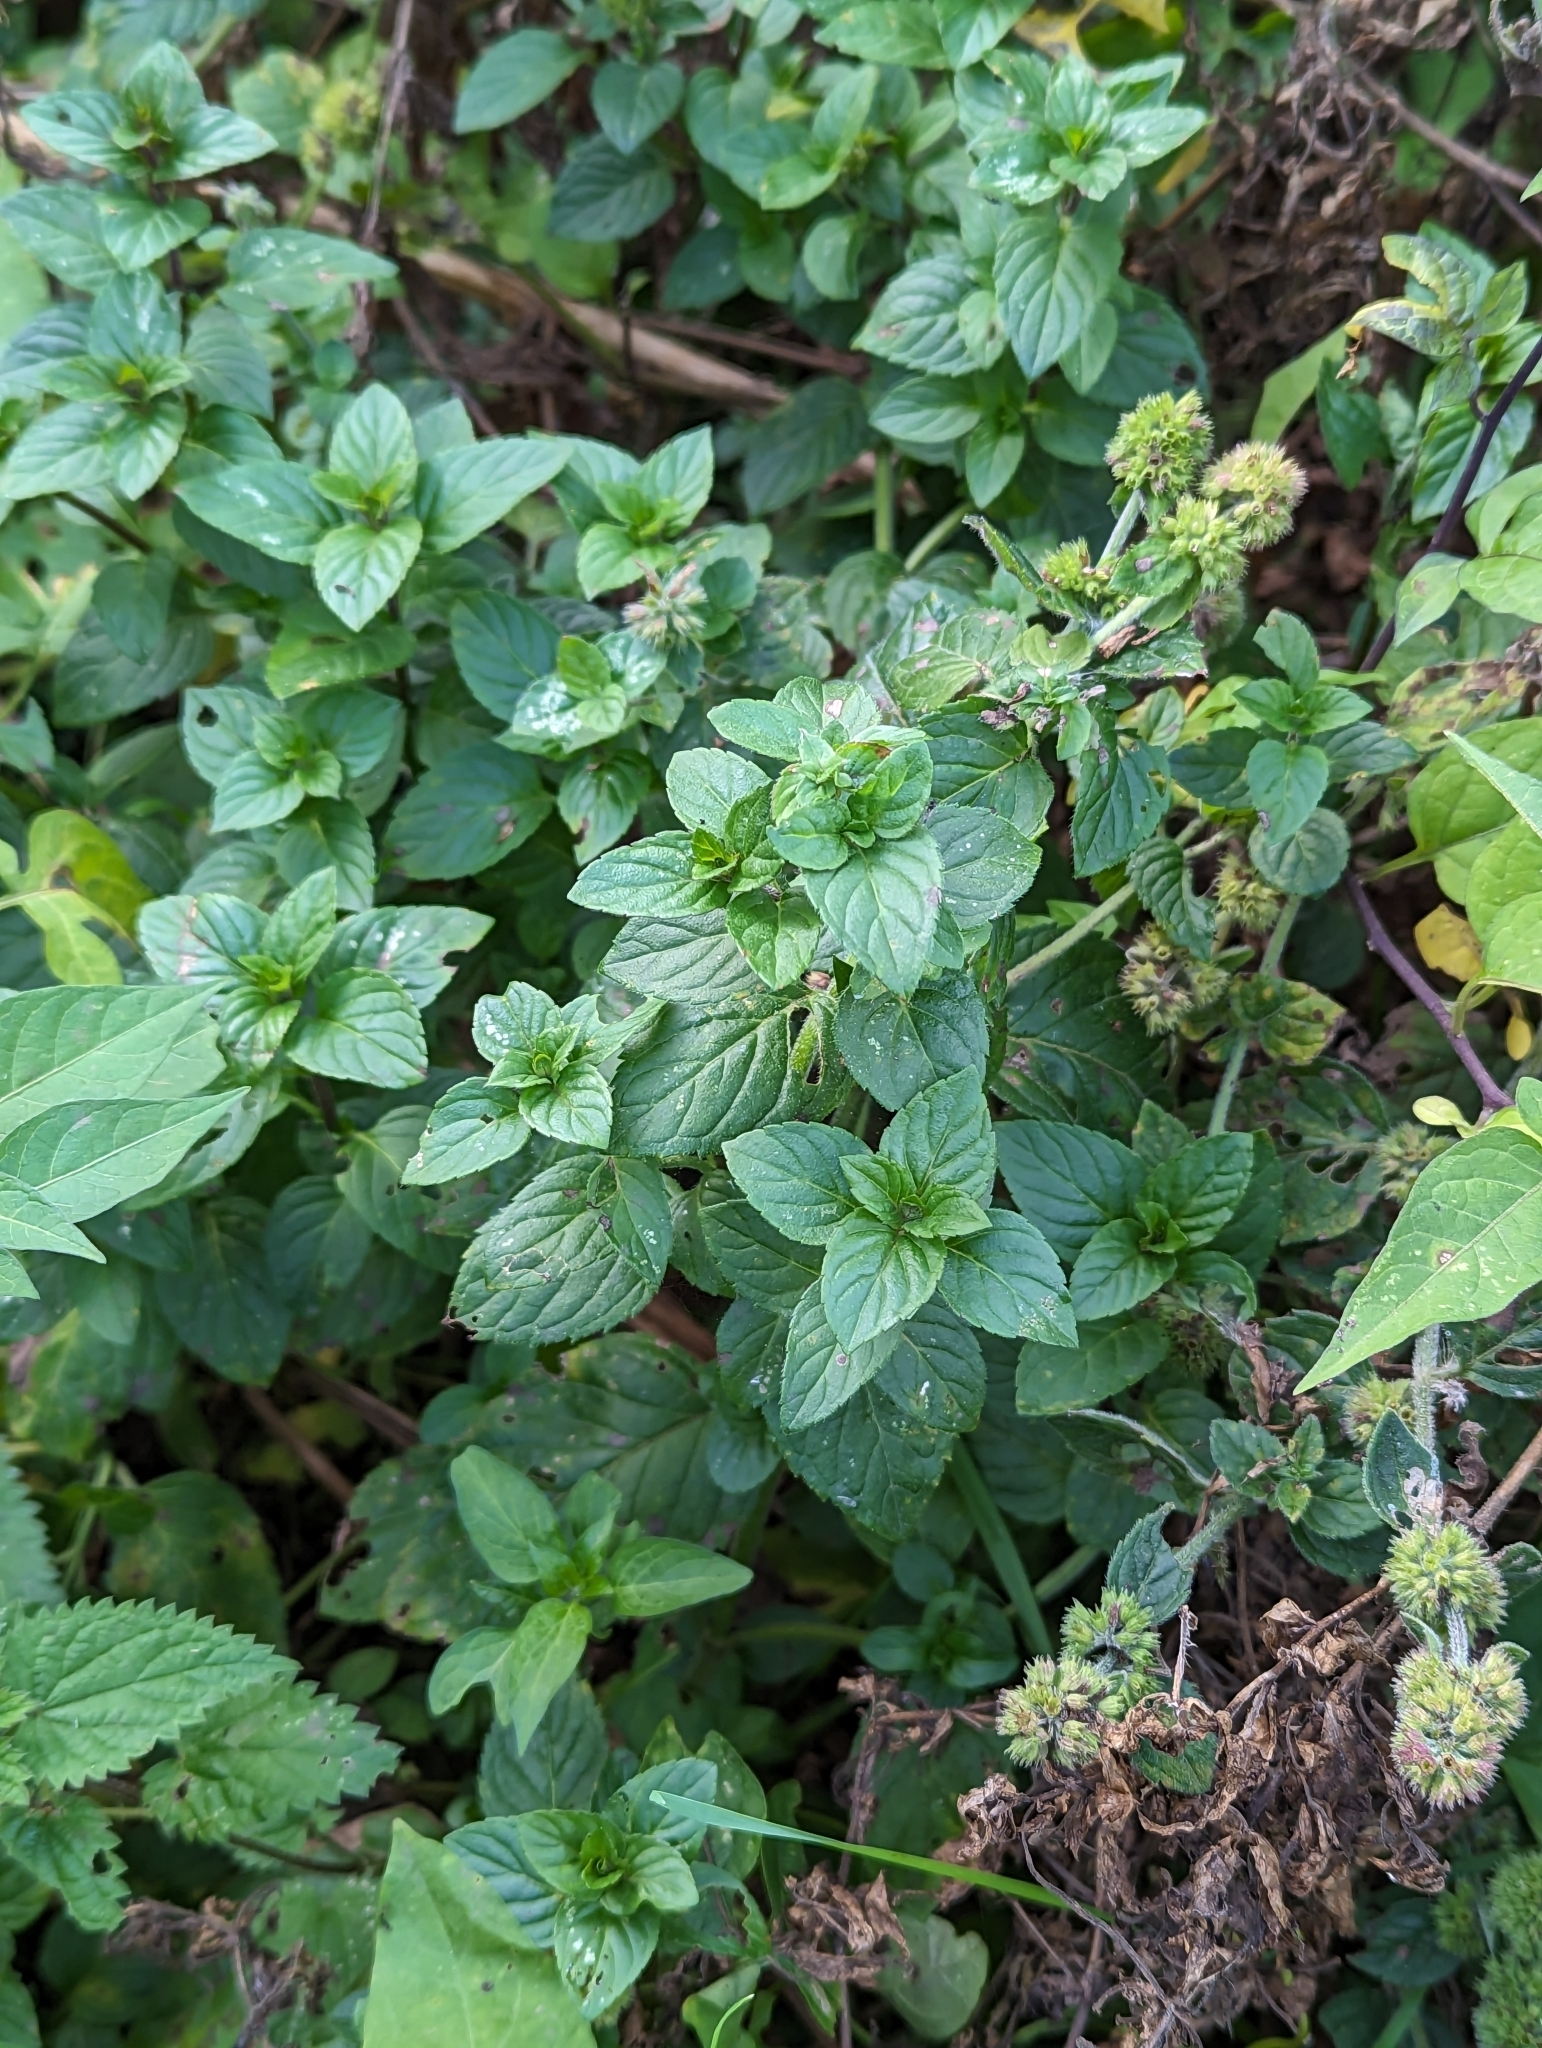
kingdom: Plantae
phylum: Tracheophyta
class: Magnoliopsida
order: Lamiales
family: Lamiaceae
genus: Mentha
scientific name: Mentha aquatica
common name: Water mint
